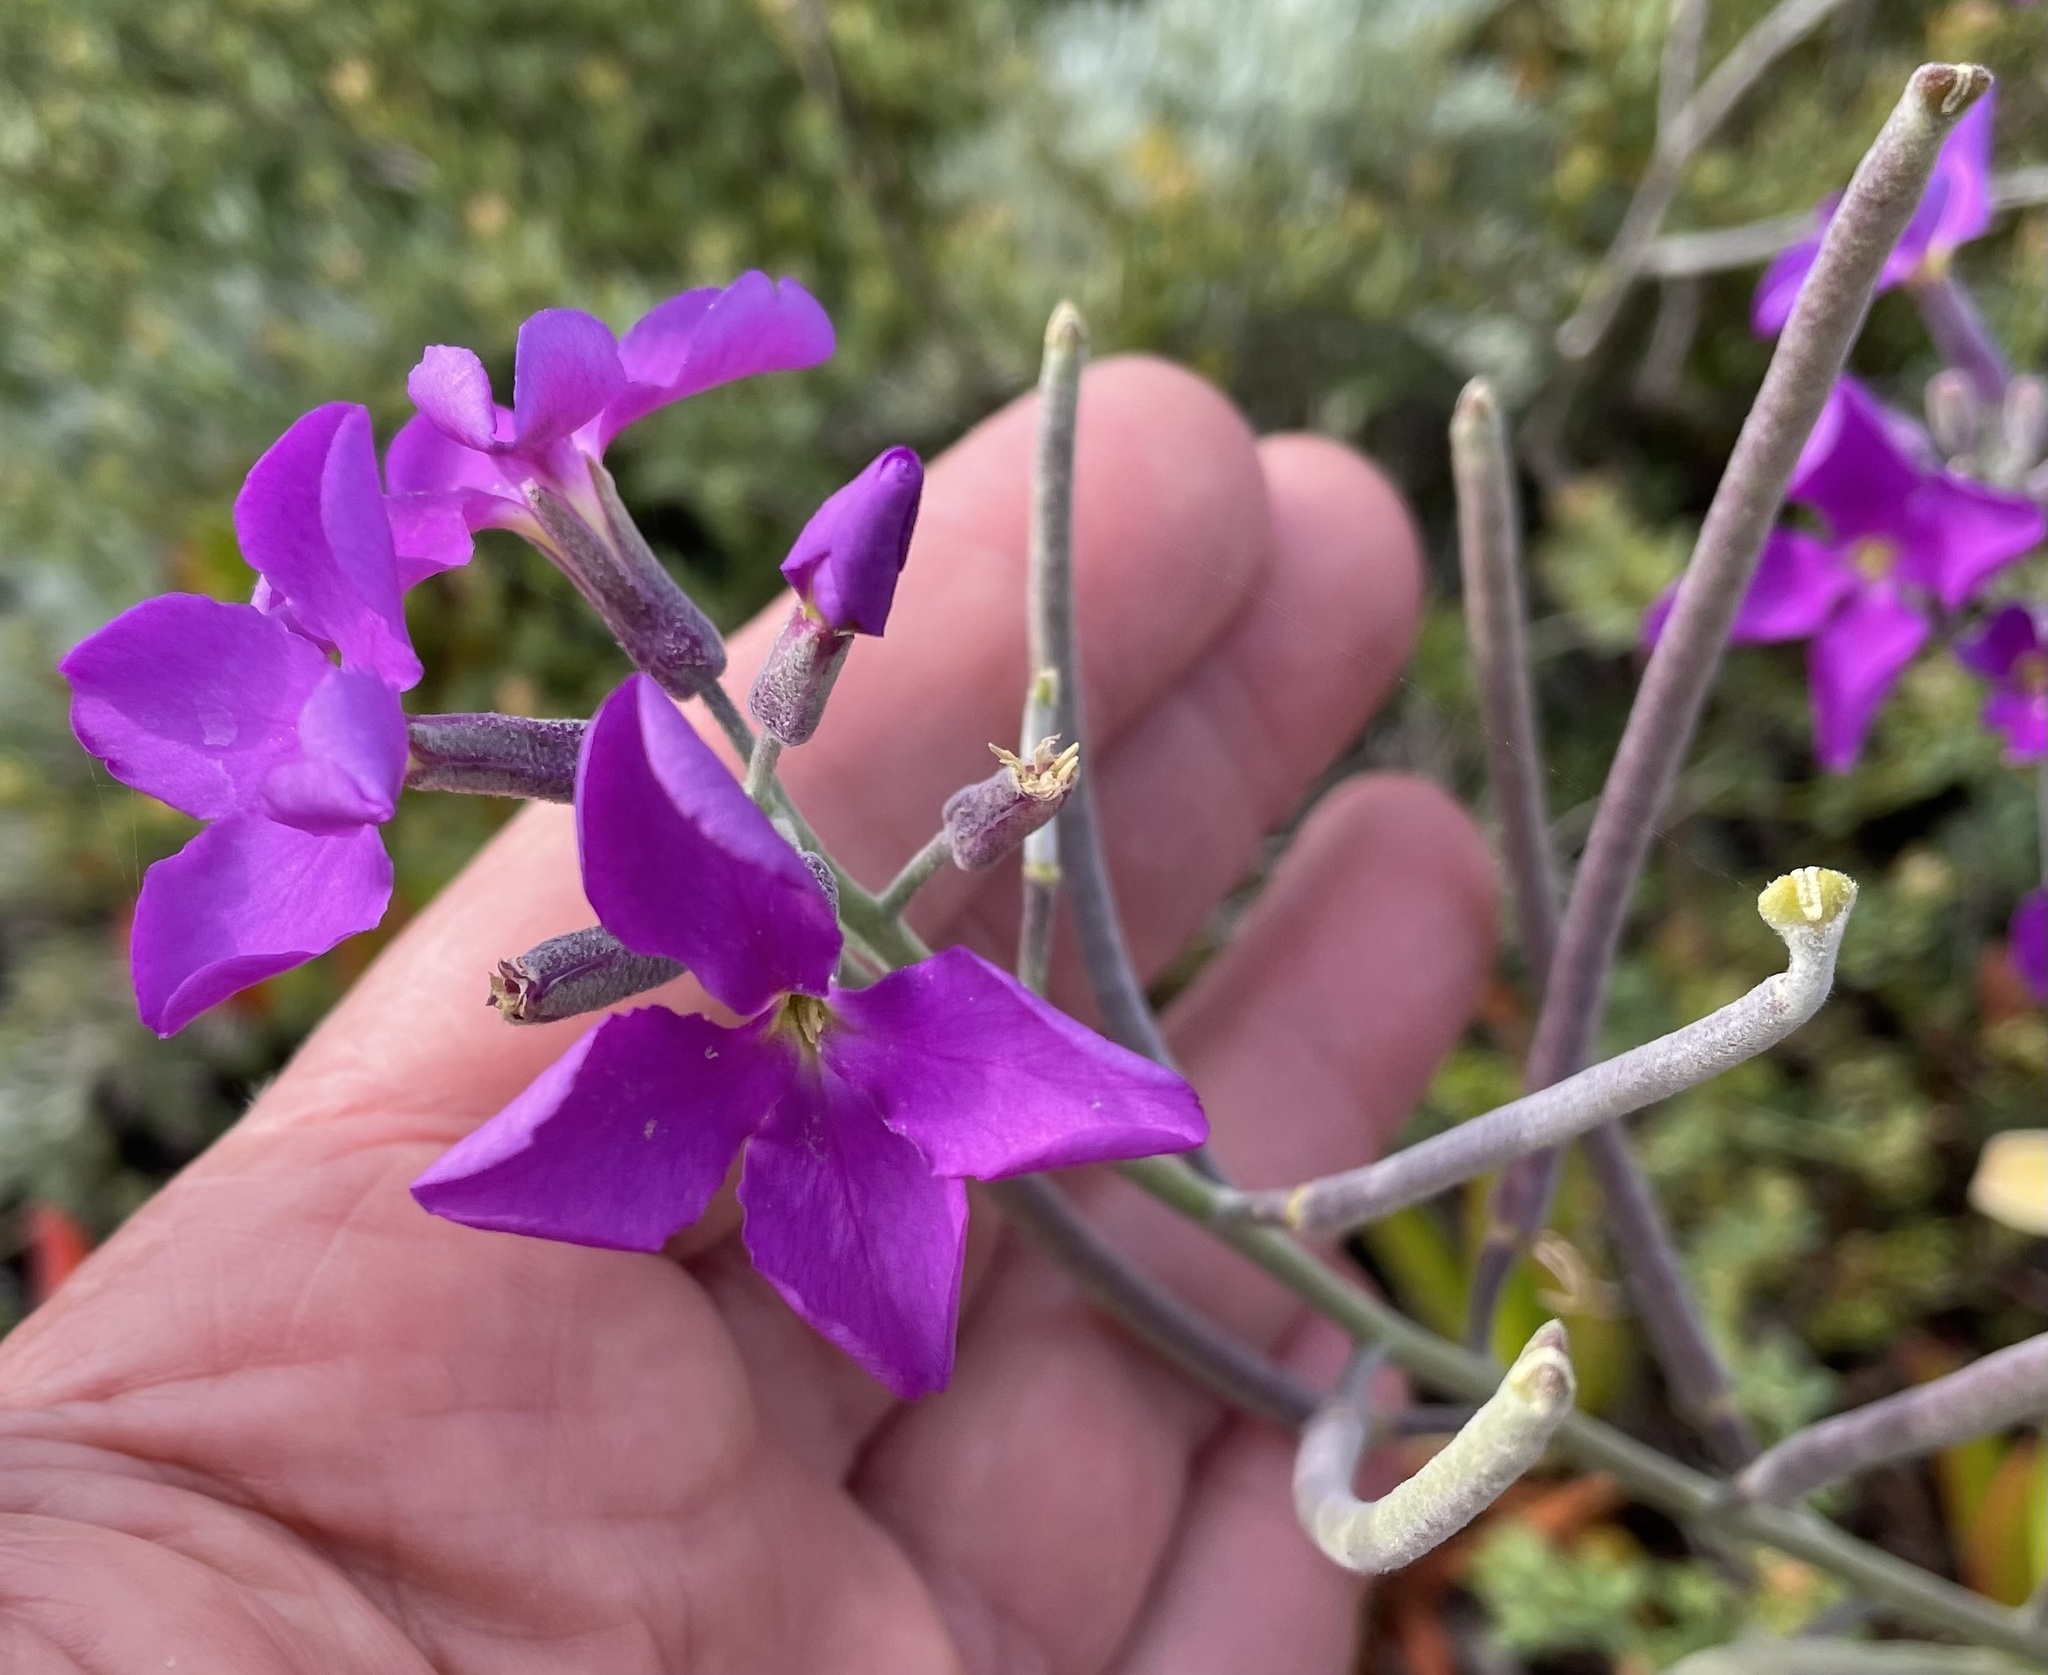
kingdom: Plantae
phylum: Tracheophyta
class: Magnoliopsida
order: Brassicales
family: Brassicaceae
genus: Matthiola
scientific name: Matthiola incana
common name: Hoary stock
